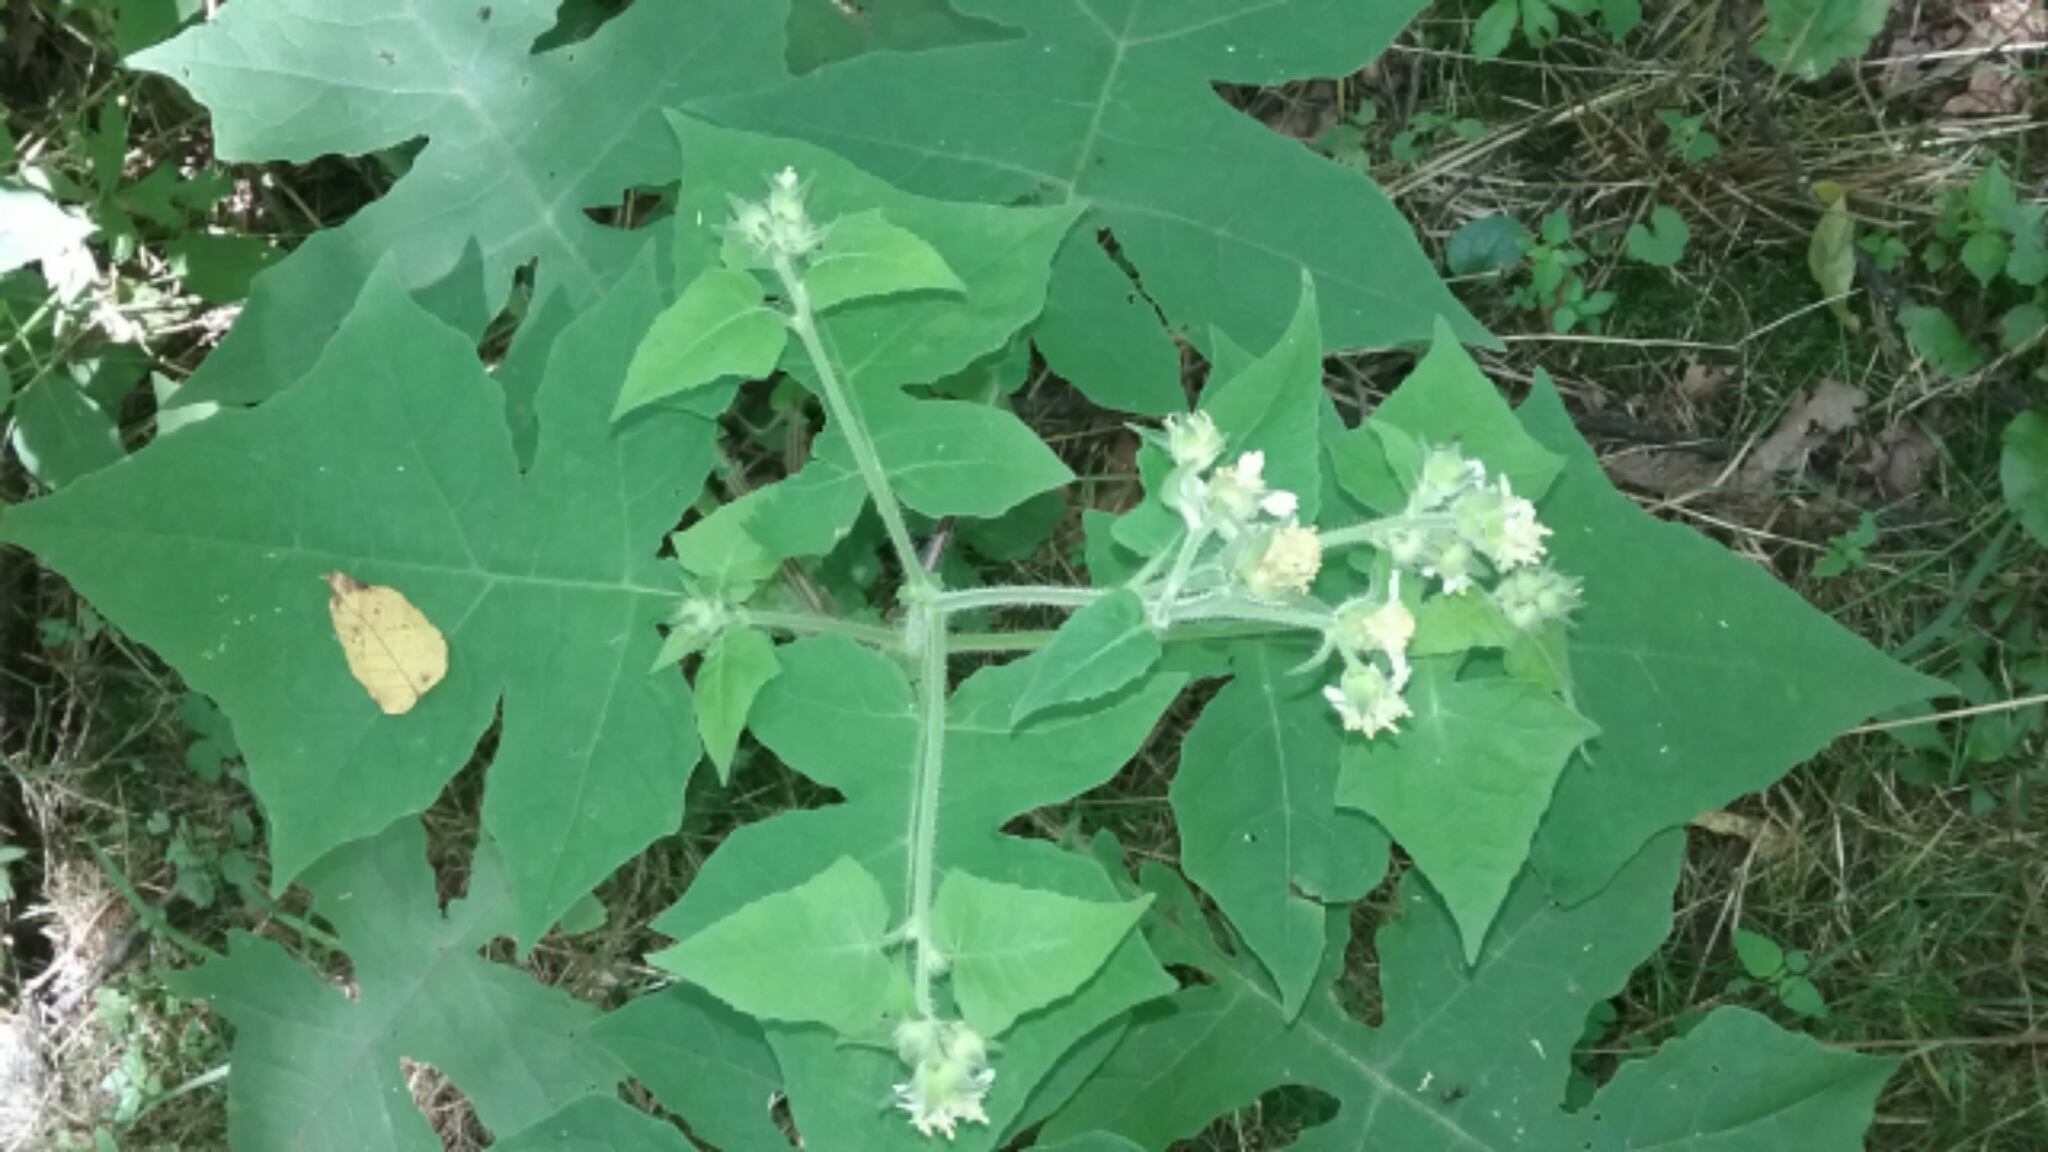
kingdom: Plantae
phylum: Tracheophyta
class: Magnoliopsida
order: Asterales
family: Asteraceae
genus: Polymnia
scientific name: Polymnia canadensis
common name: Pale-flowered leafcup
